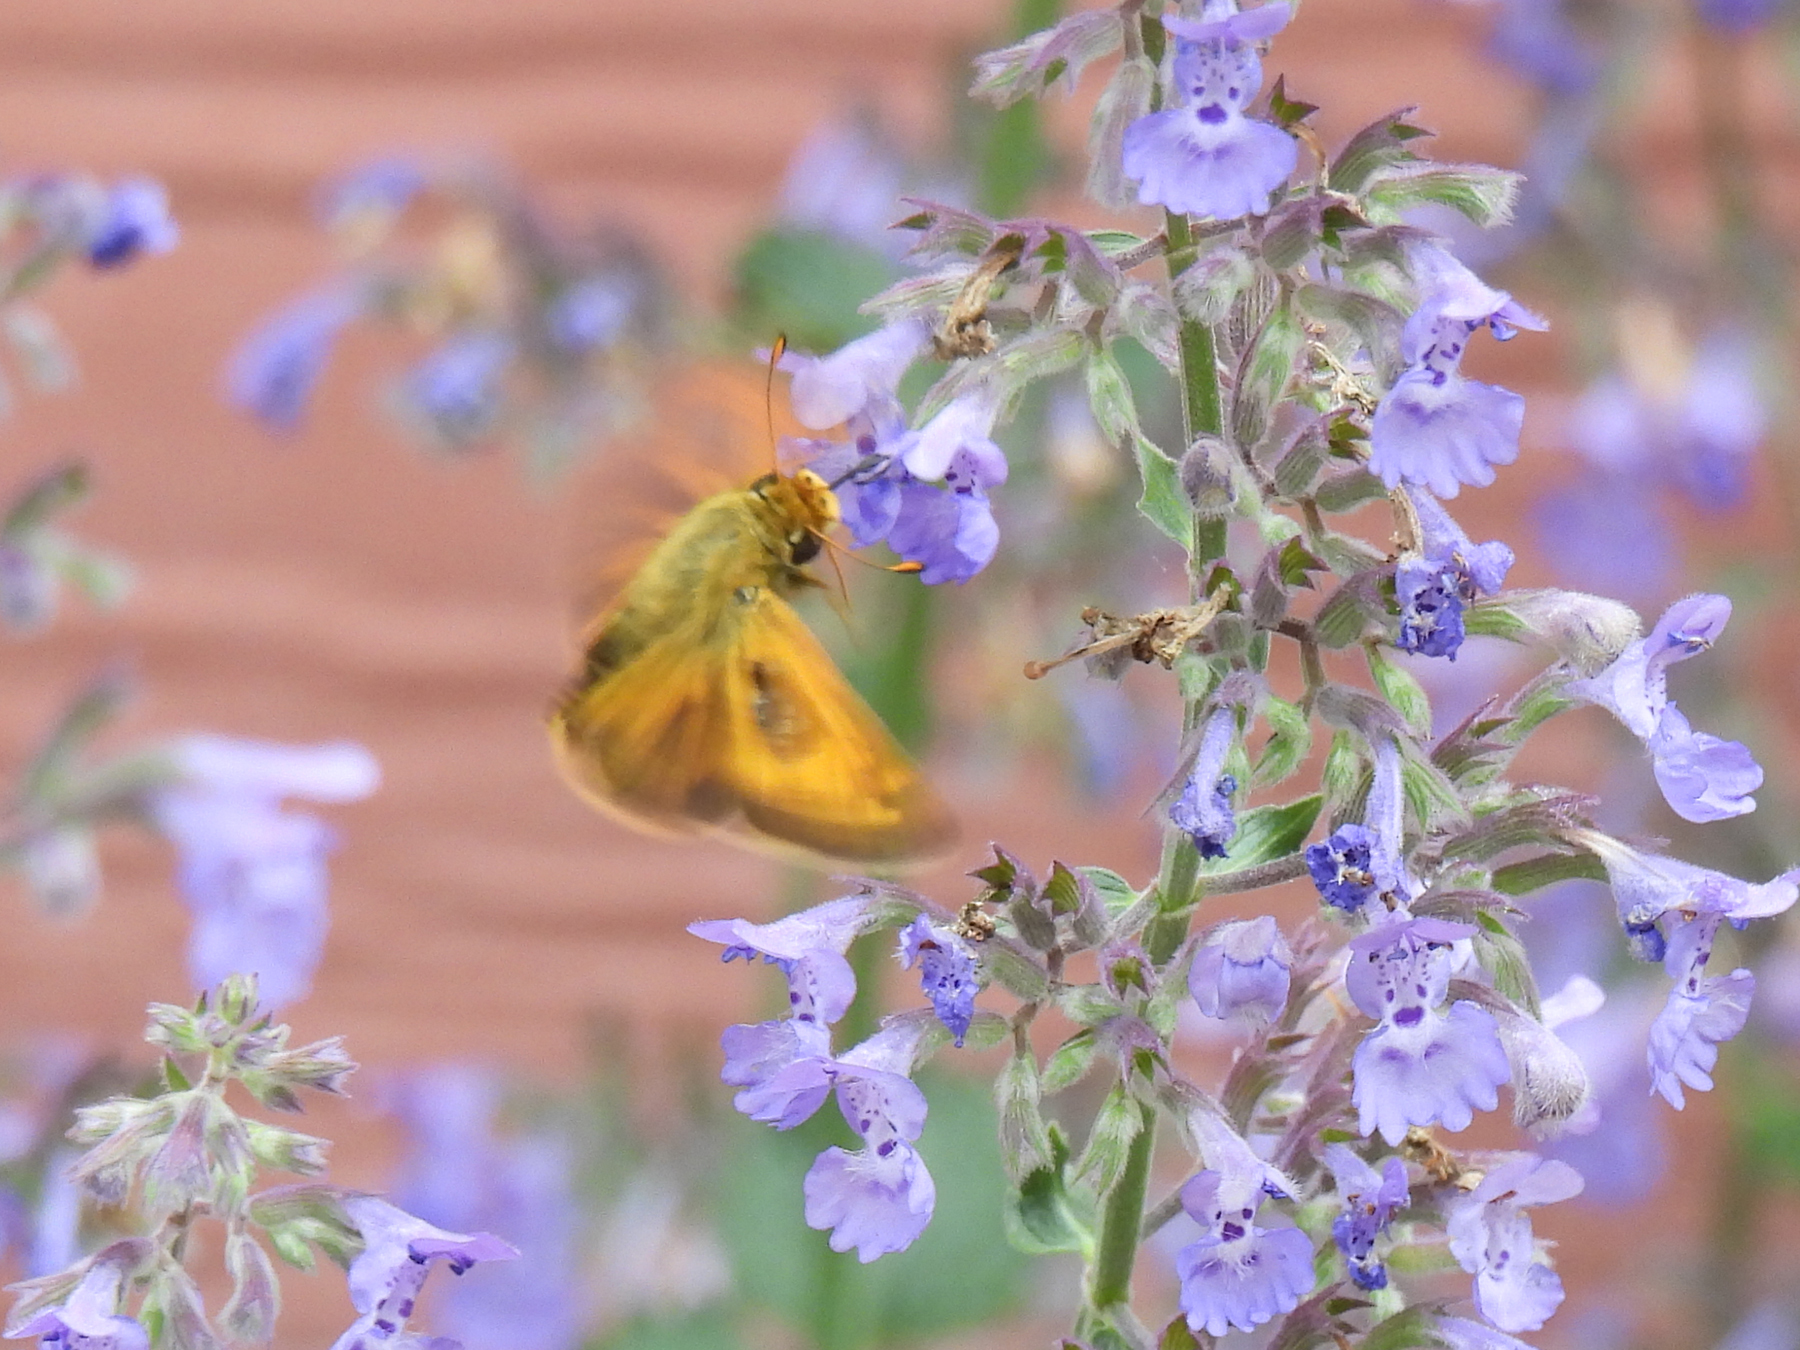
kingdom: Animalia
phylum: Arthropoda
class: Insecta
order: Lepidoptera
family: Hesperiidae
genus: Atalopedes
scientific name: Atalopedes
